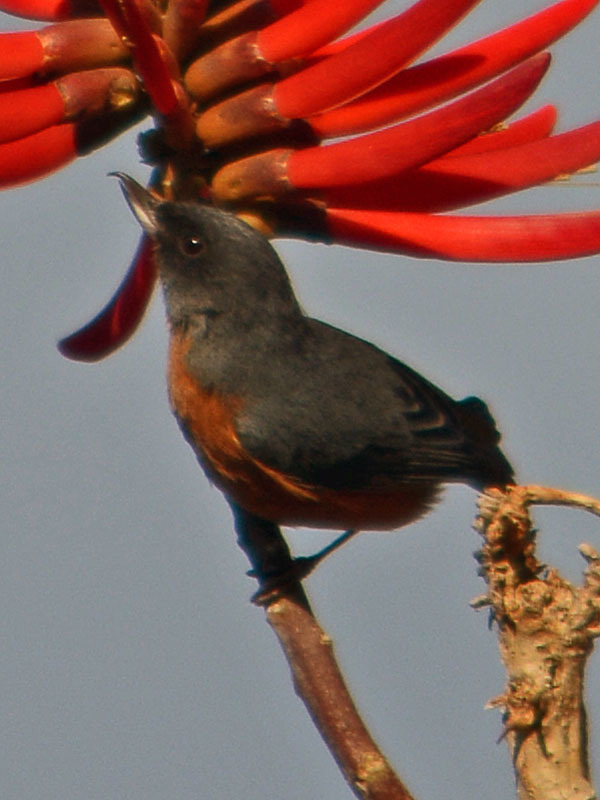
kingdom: Animalia
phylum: Chordata
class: Aves
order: Passeriformes
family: Thraupidae
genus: Diglossa
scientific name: Diglossa baritula
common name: Cinnamon-bellied flowerpiercer
